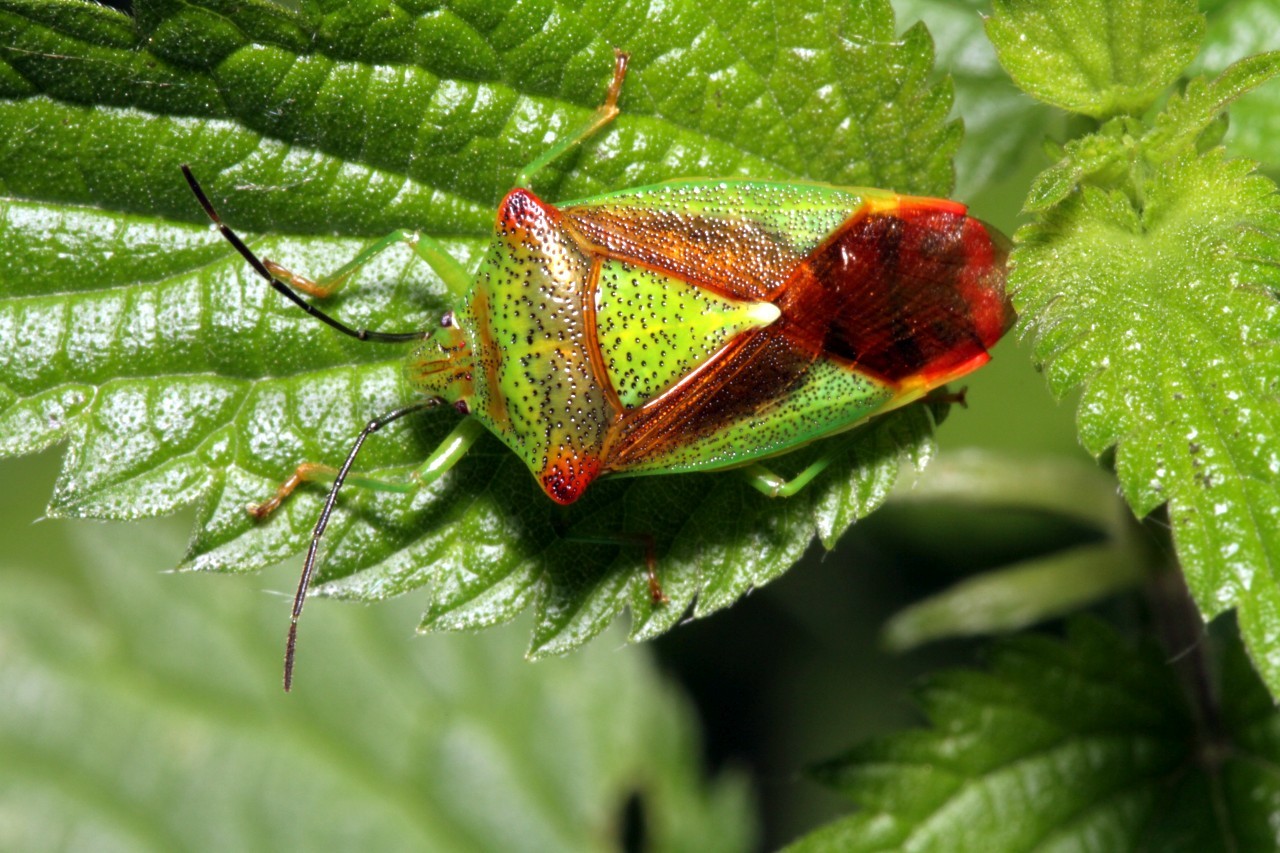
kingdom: Animalia
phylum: Arthropoda
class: Insecta
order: Hemiptera
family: Acanthosomatidae
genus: Acanthosoma
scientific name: Acanthosoma haemorrhoidale
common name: Hawthorn shieldbug
